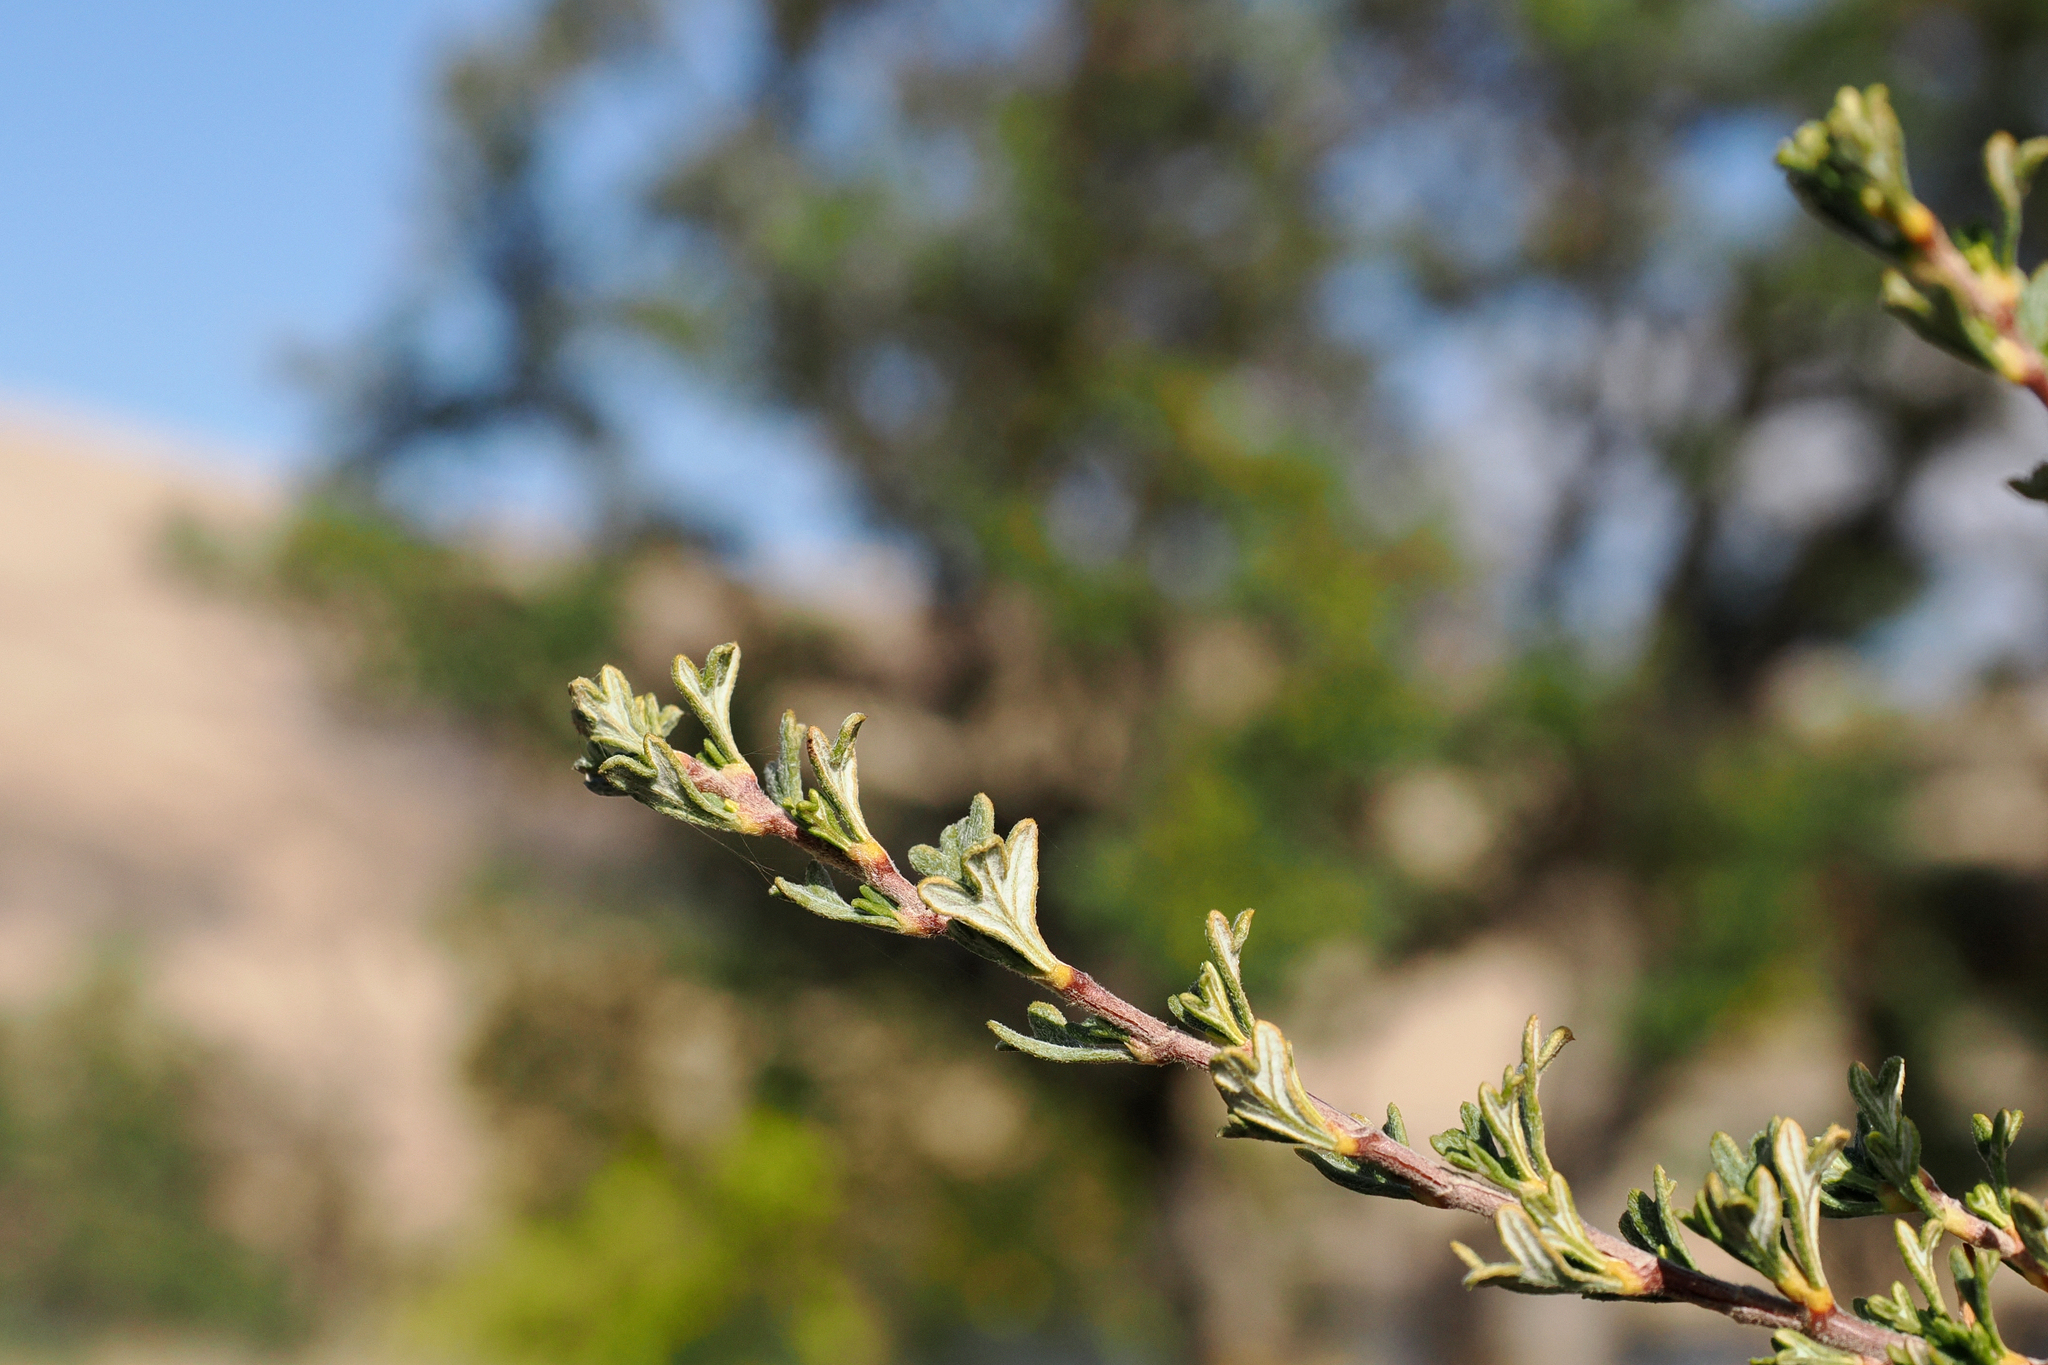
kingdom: Plantae
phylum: Tracheophyta
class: Magnoliopsida
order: Rosales
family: Rosaceae
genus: Purshia
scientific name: Purshia tridentata
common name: Antelope bitterbrush
